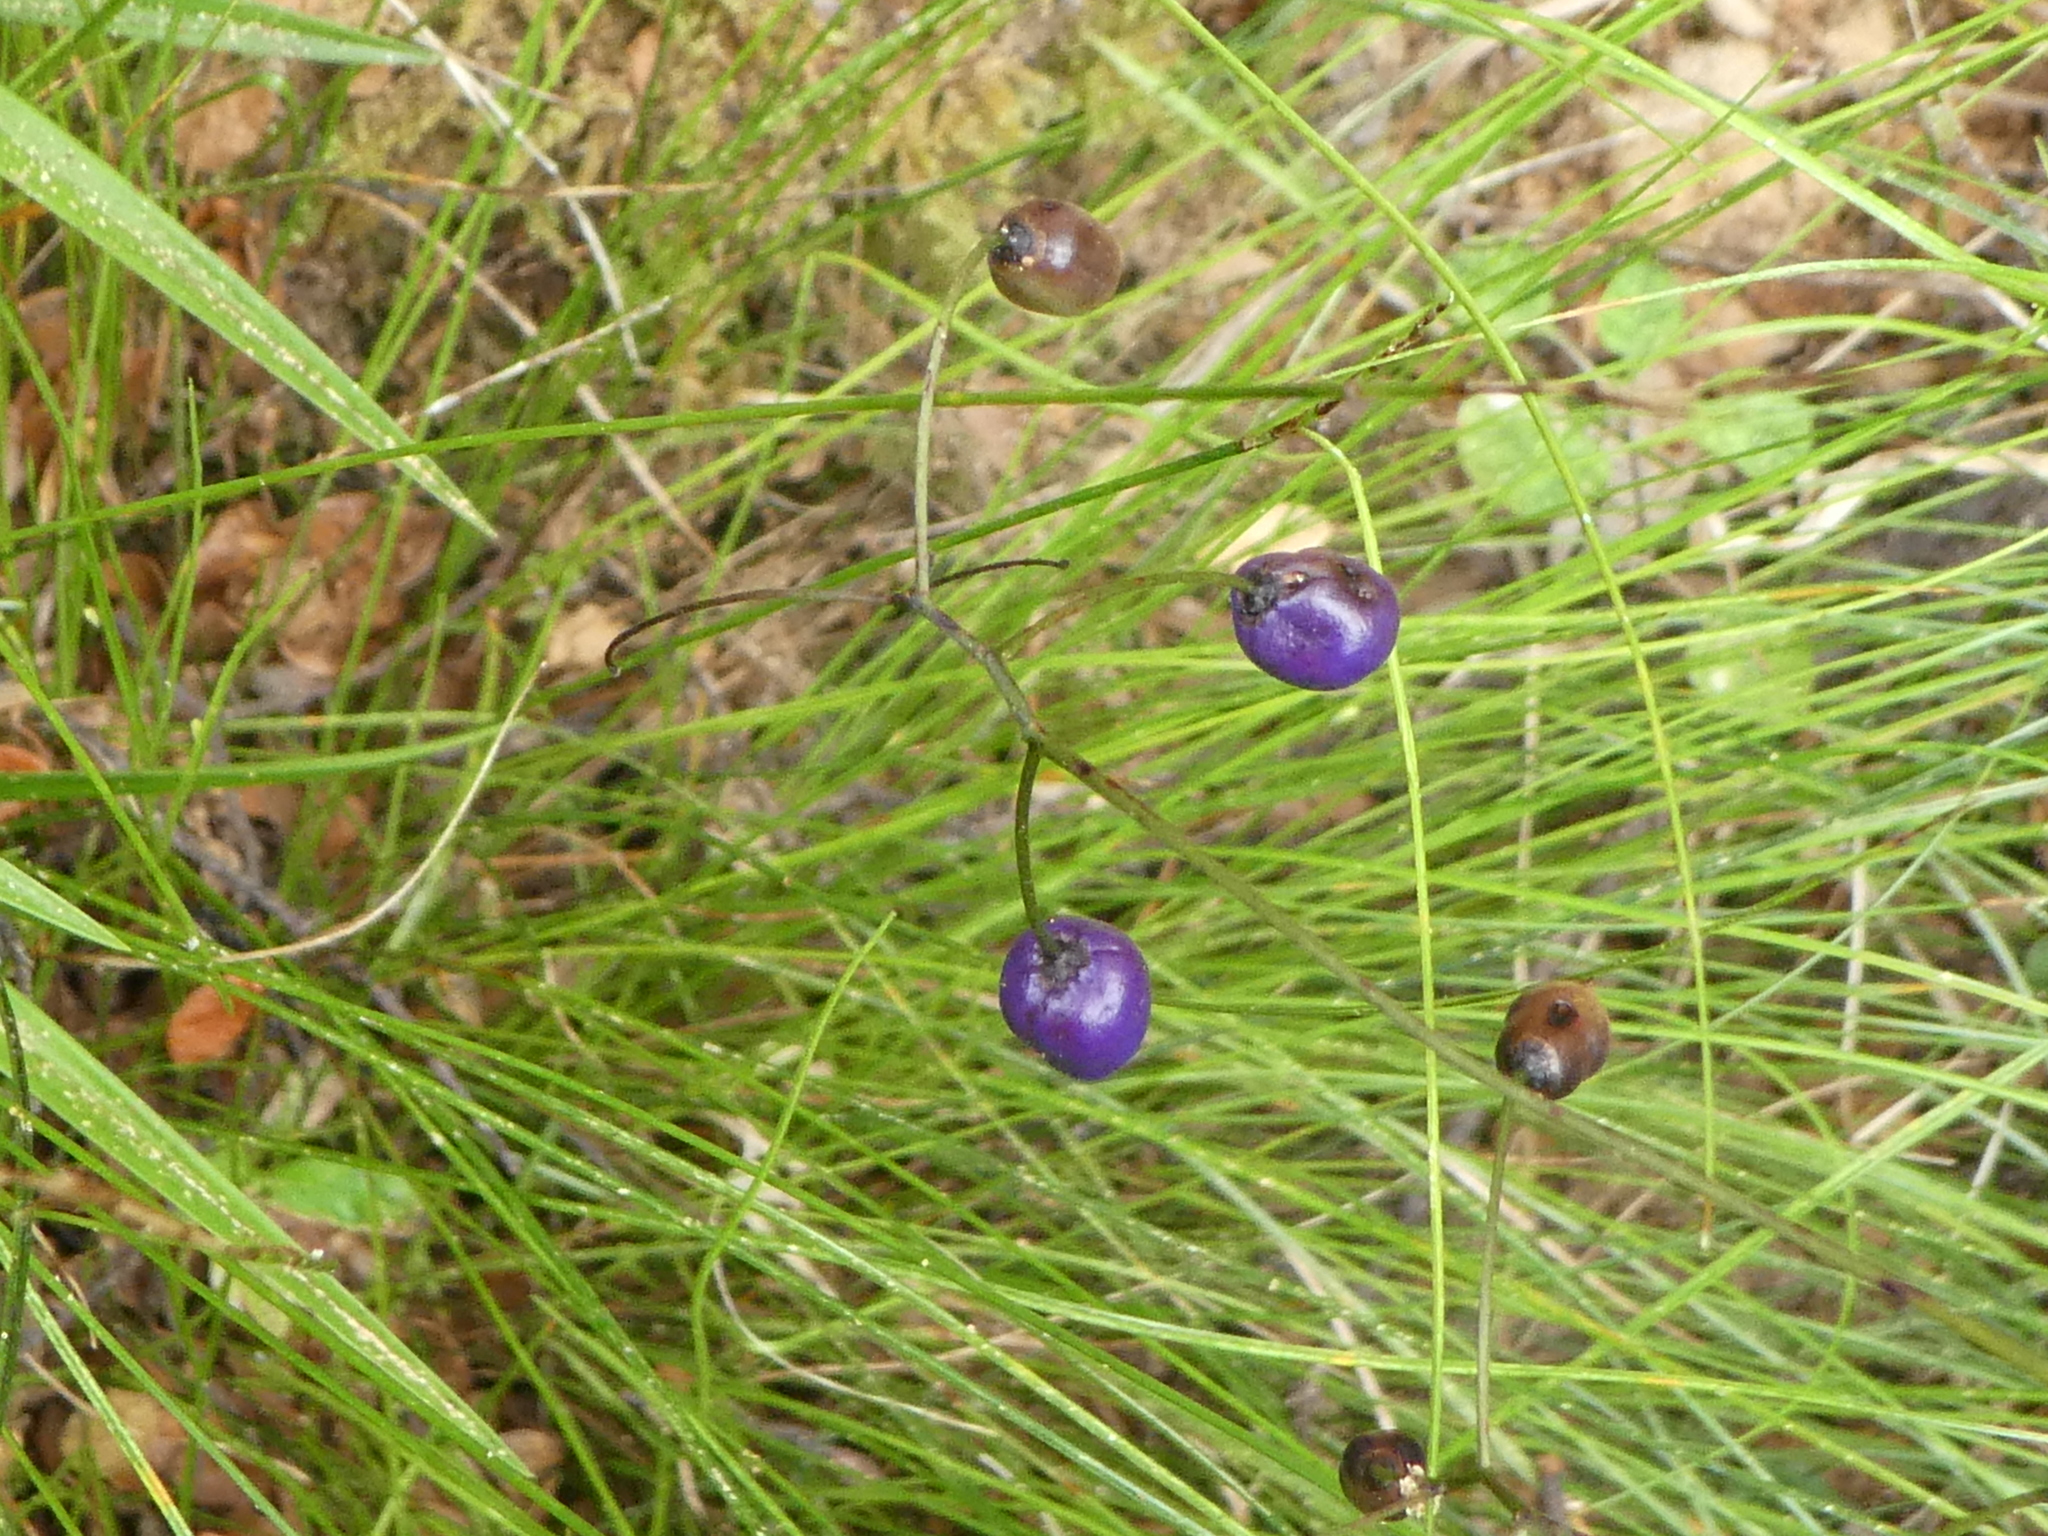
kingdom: Plantae
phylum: Tracheophyta
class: Liliopsida
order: Asparagales
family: Asphodelaceae
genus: Dianella
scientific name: Dianella nigra
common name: New zealand-blueberry
